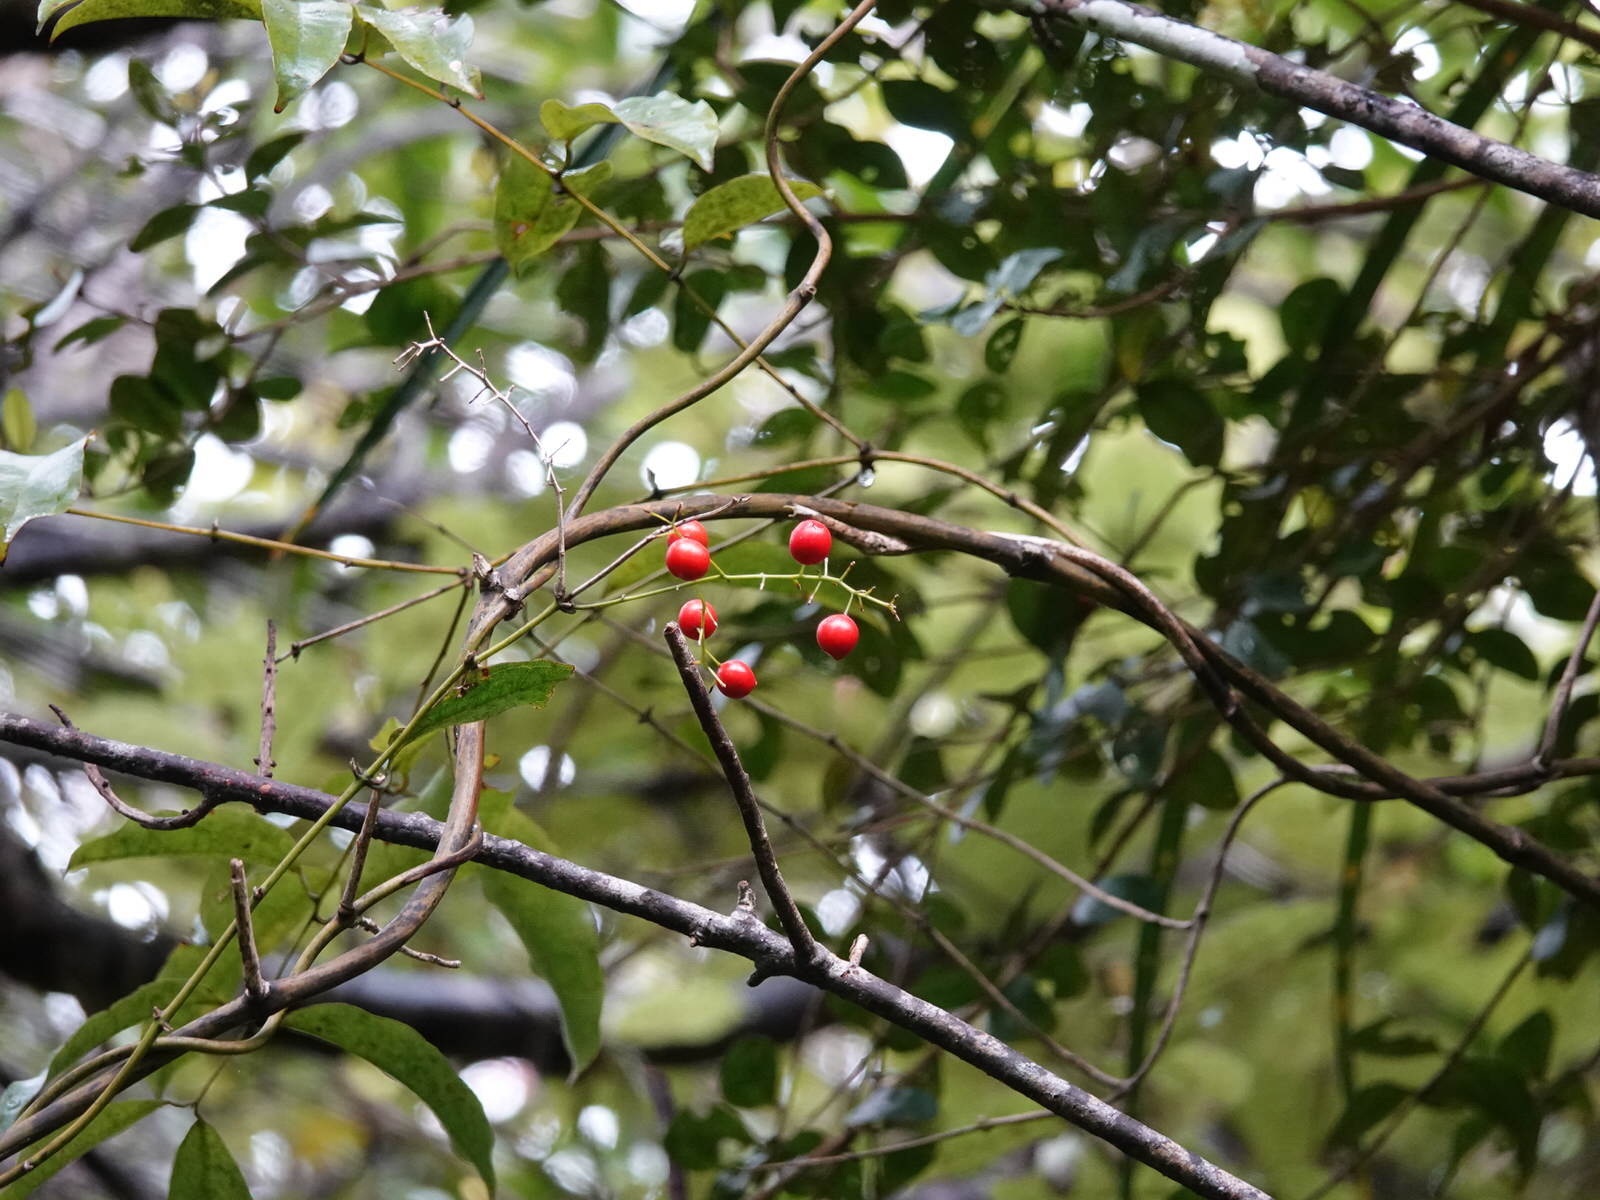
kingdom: Plantae
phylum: Tracheophyta
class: Liliopsida
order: Liliales
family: Ripogonaceae
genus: Ripogonum
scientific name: Ripogonum scandens
